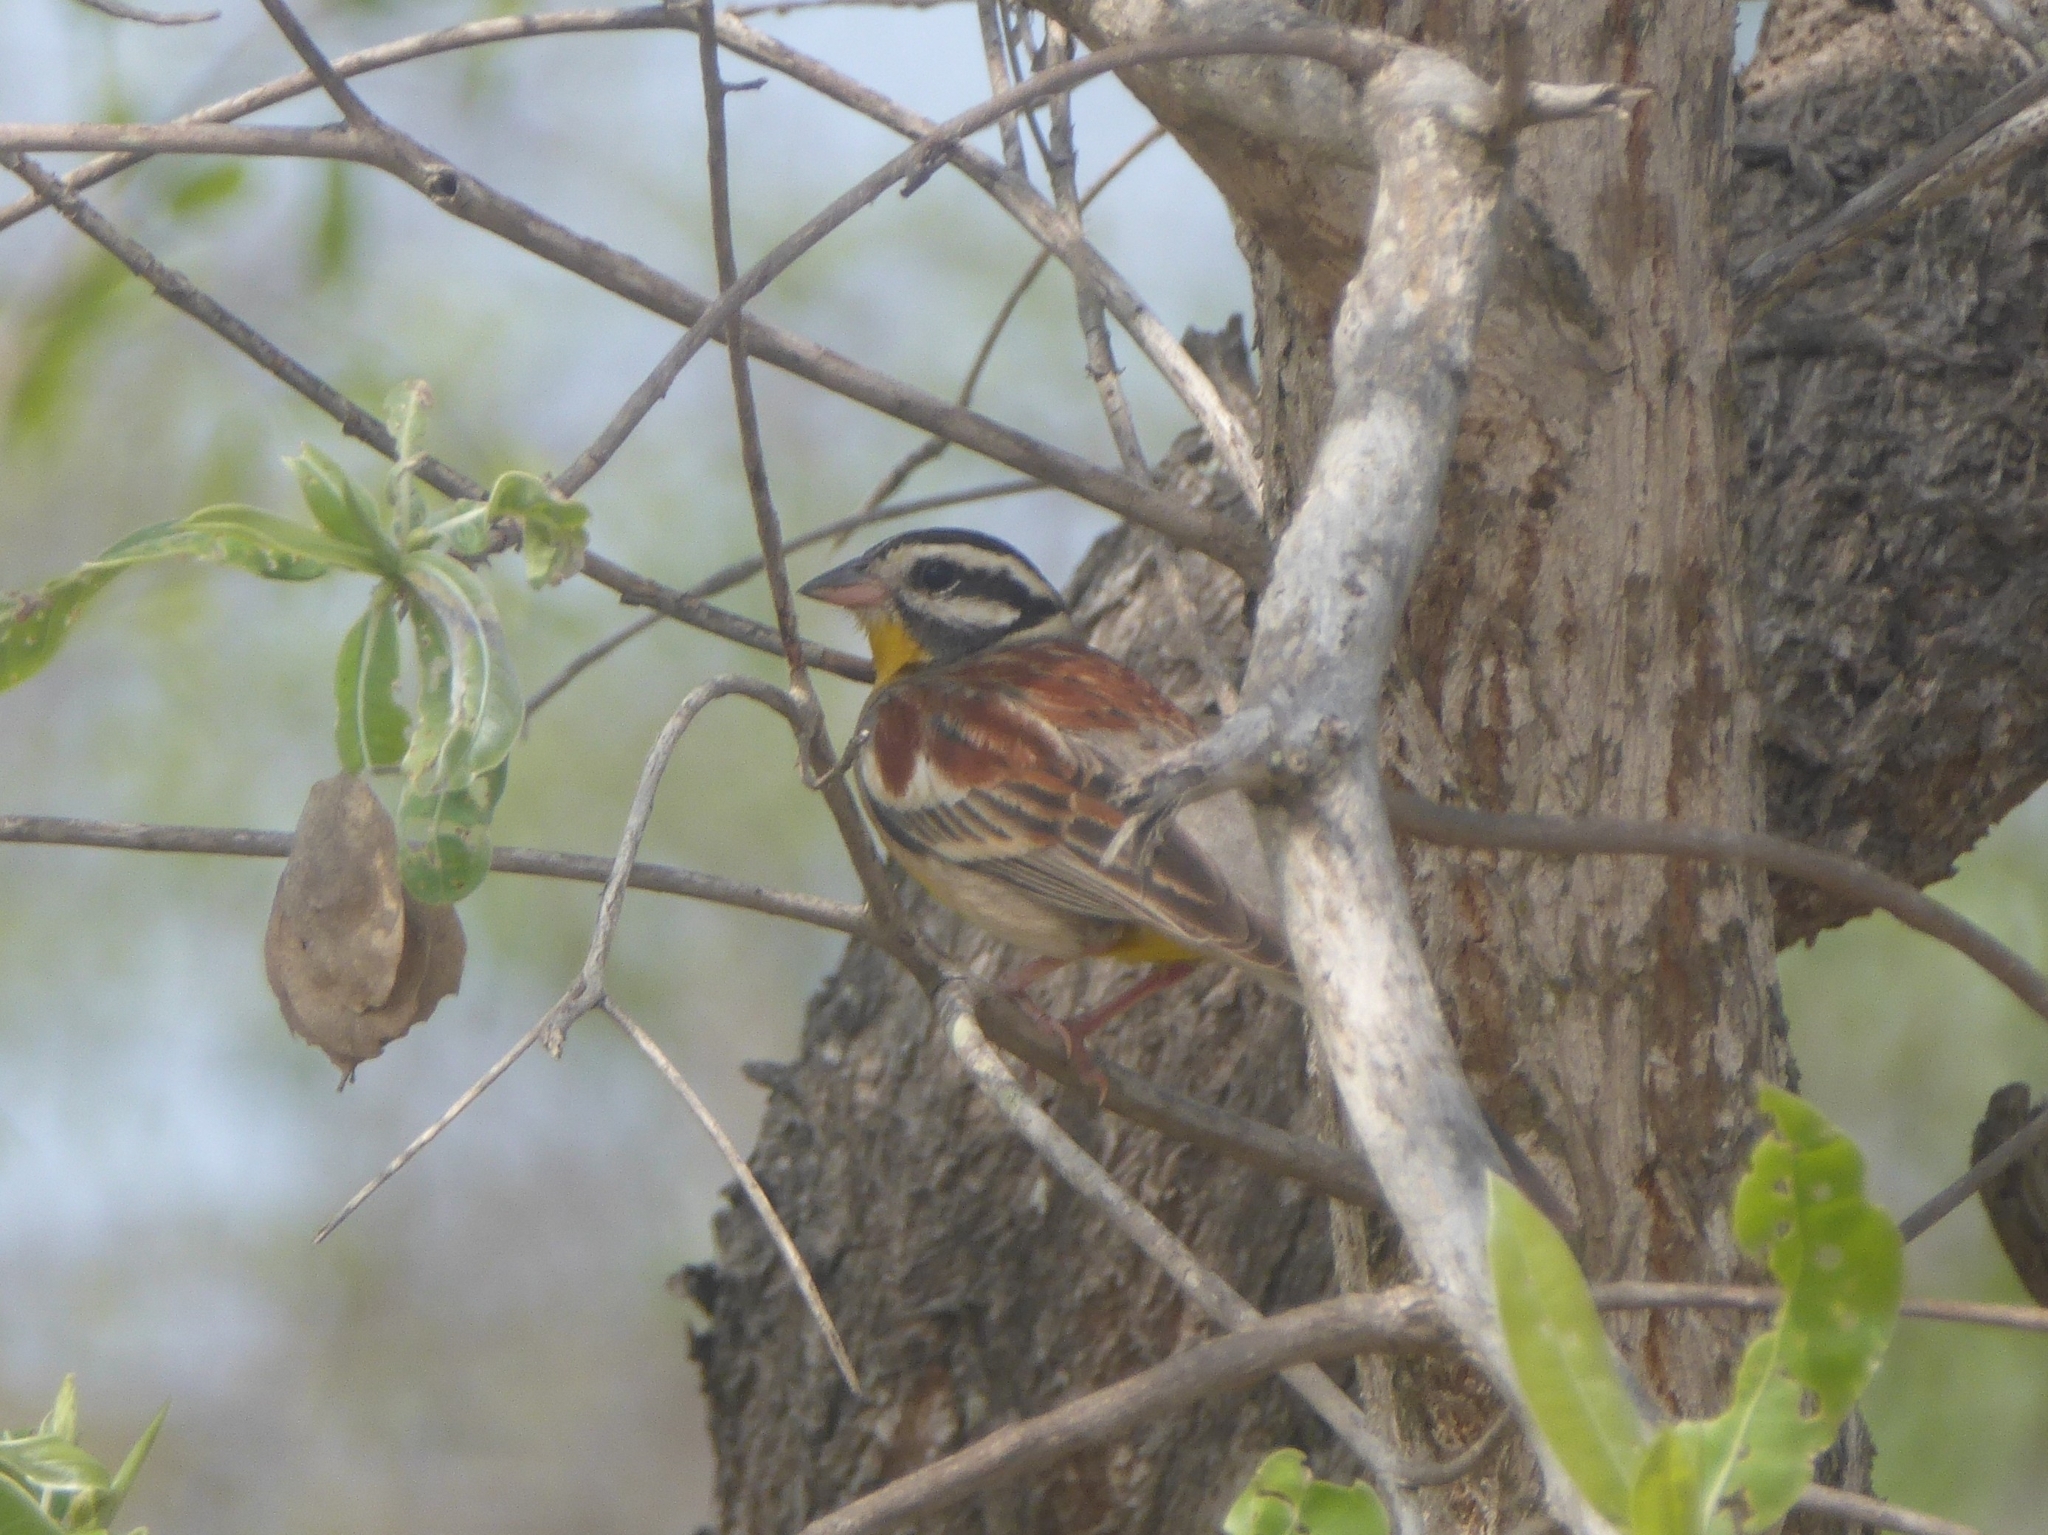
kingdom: Animalia
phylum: Chordata
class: Aves
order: Passeriformes
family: Emberizidae
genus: Emberiza
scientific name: Emberiza flaviventris
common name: Golden-breasted bunting
